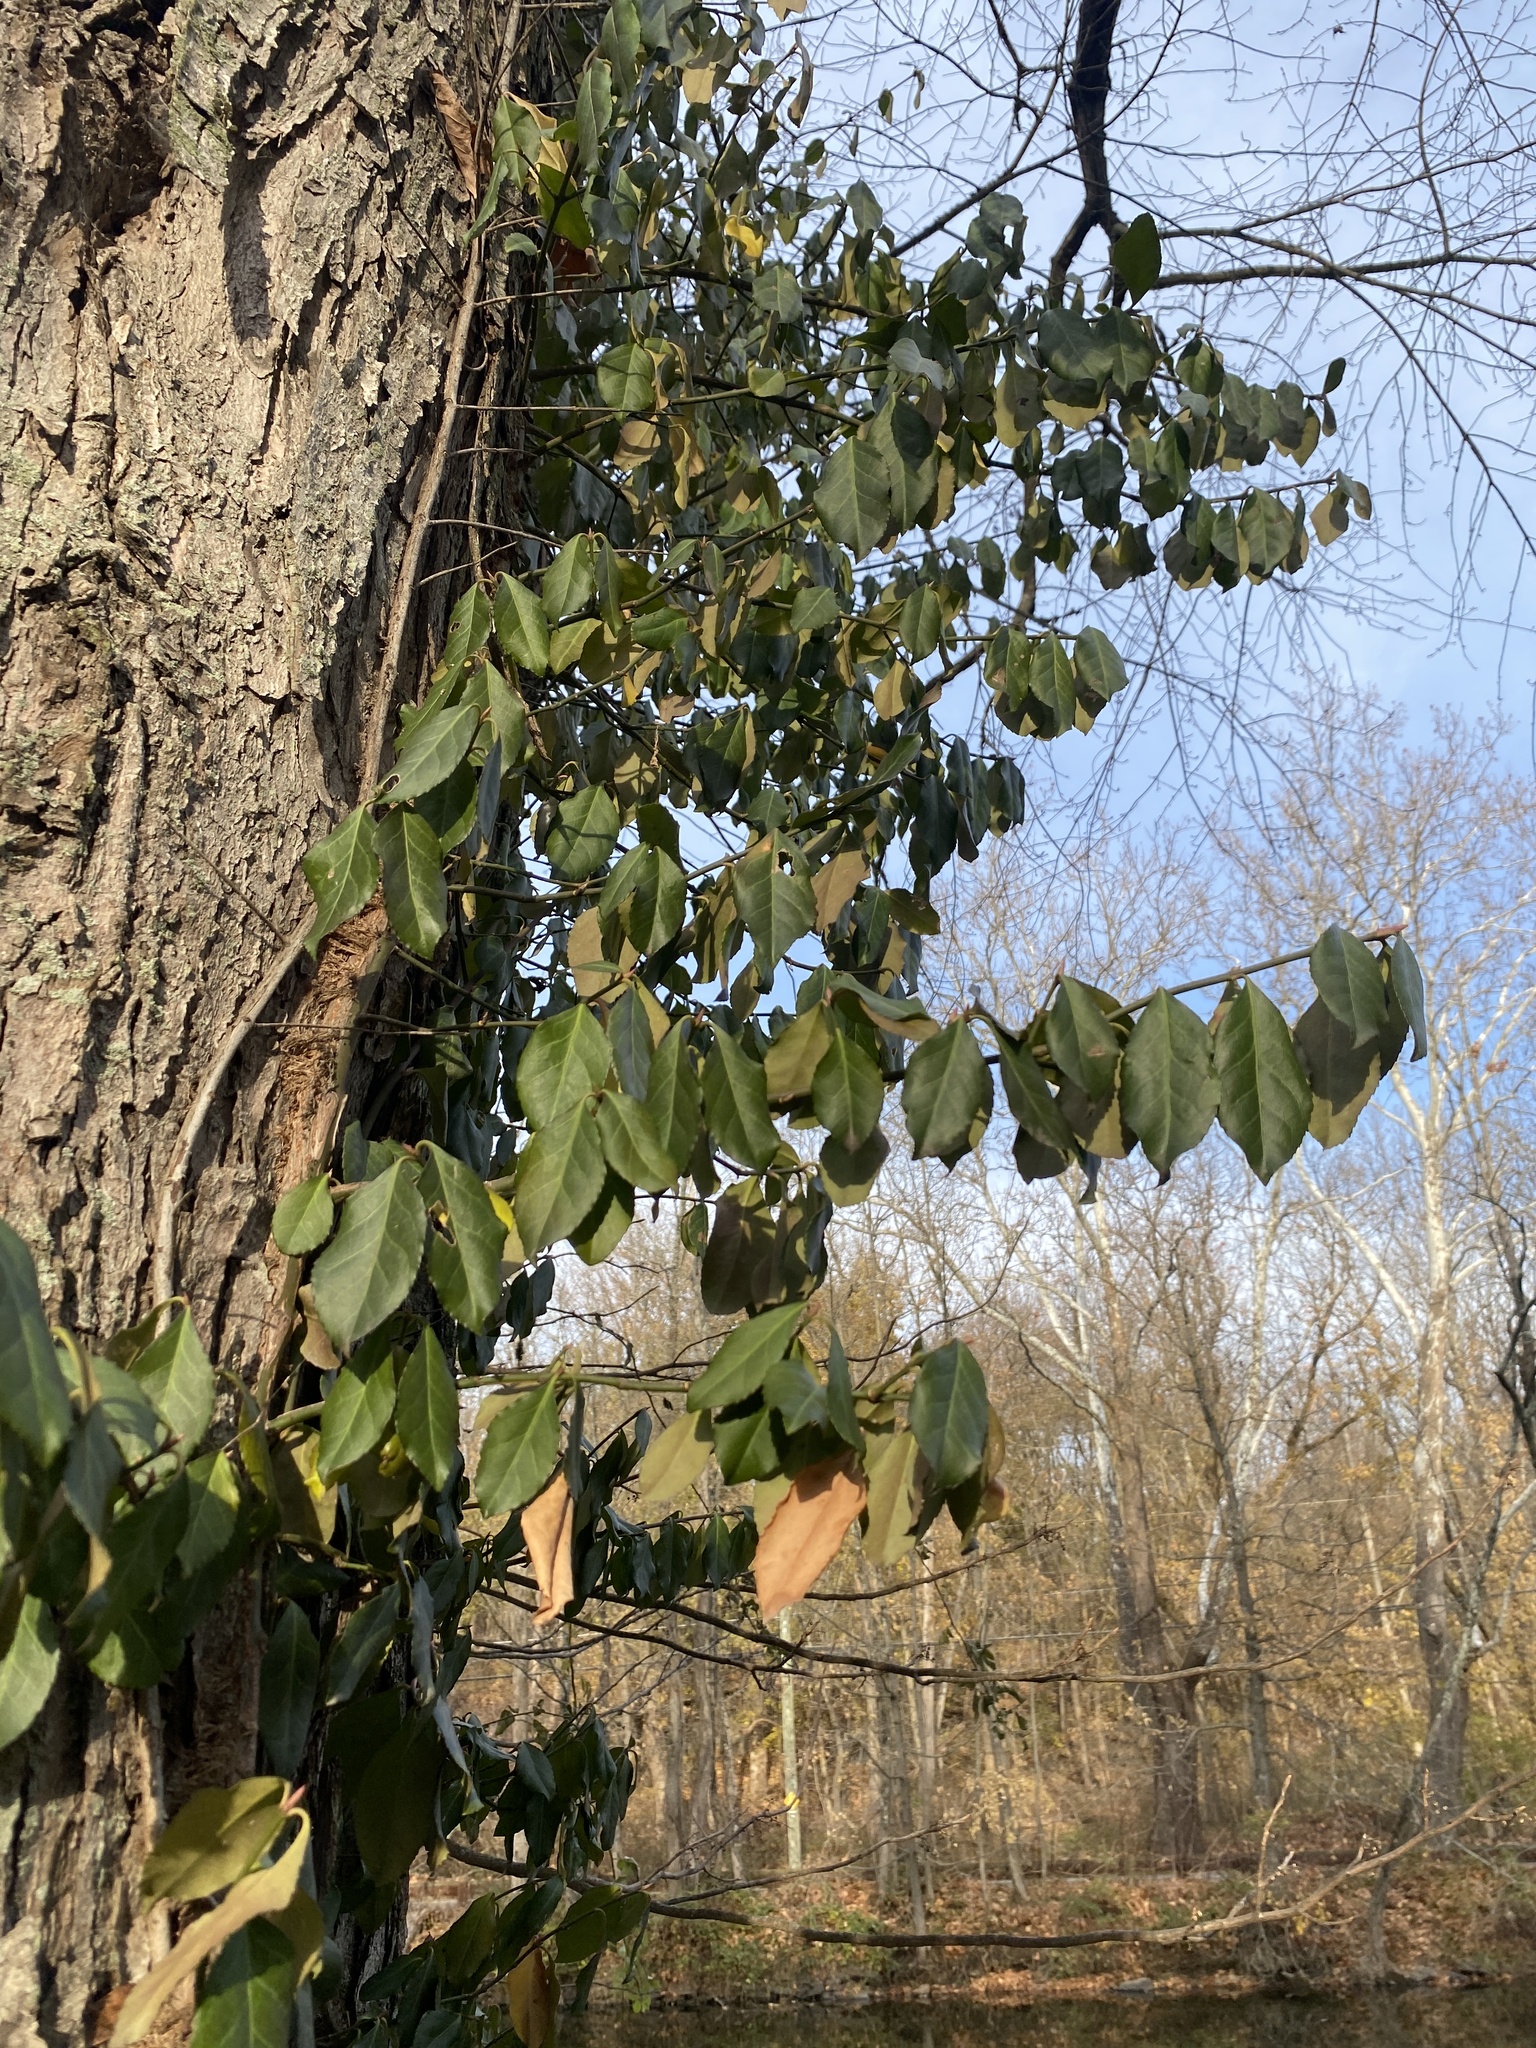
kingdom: Plantae
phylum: Tracheophyta
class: Magnoliopsida
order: Celastrales
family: Celastraceae
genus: Euonymus
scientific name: Euonymus fortunei
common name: Climbing euonymus
